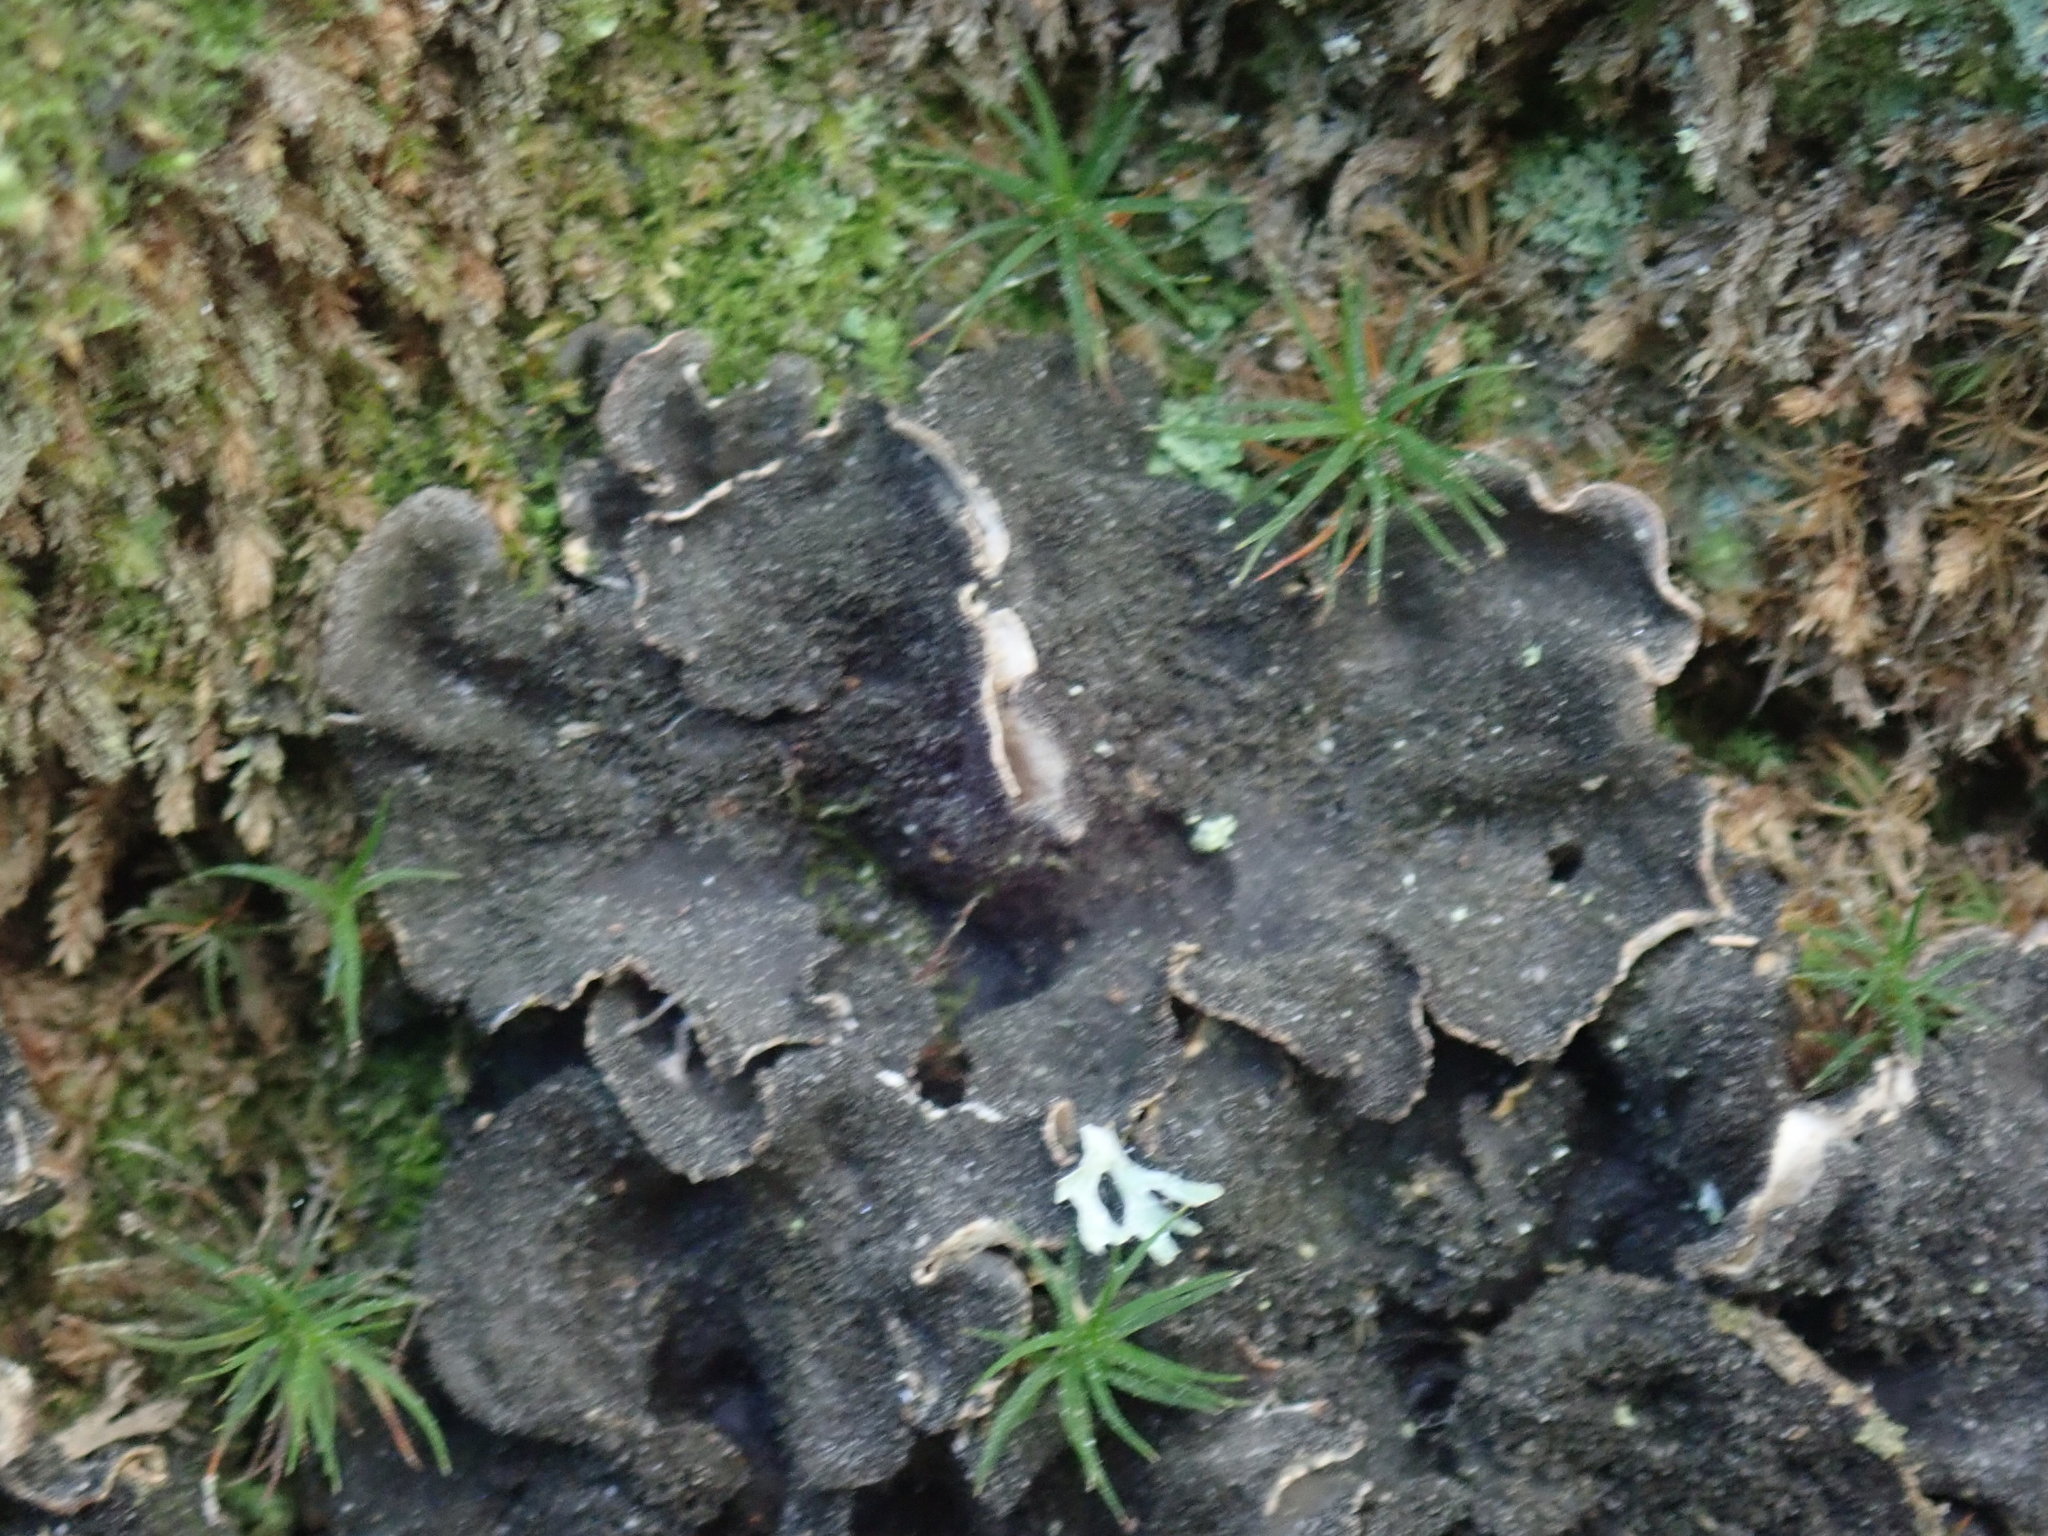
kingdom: Fungi
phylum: Ascomycota
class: Lecanoromycetes
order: Peltigerales
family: Peltigeraceae
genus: Peltigera
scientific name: Peltigera evansiana
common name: Peppered pelt lichen
